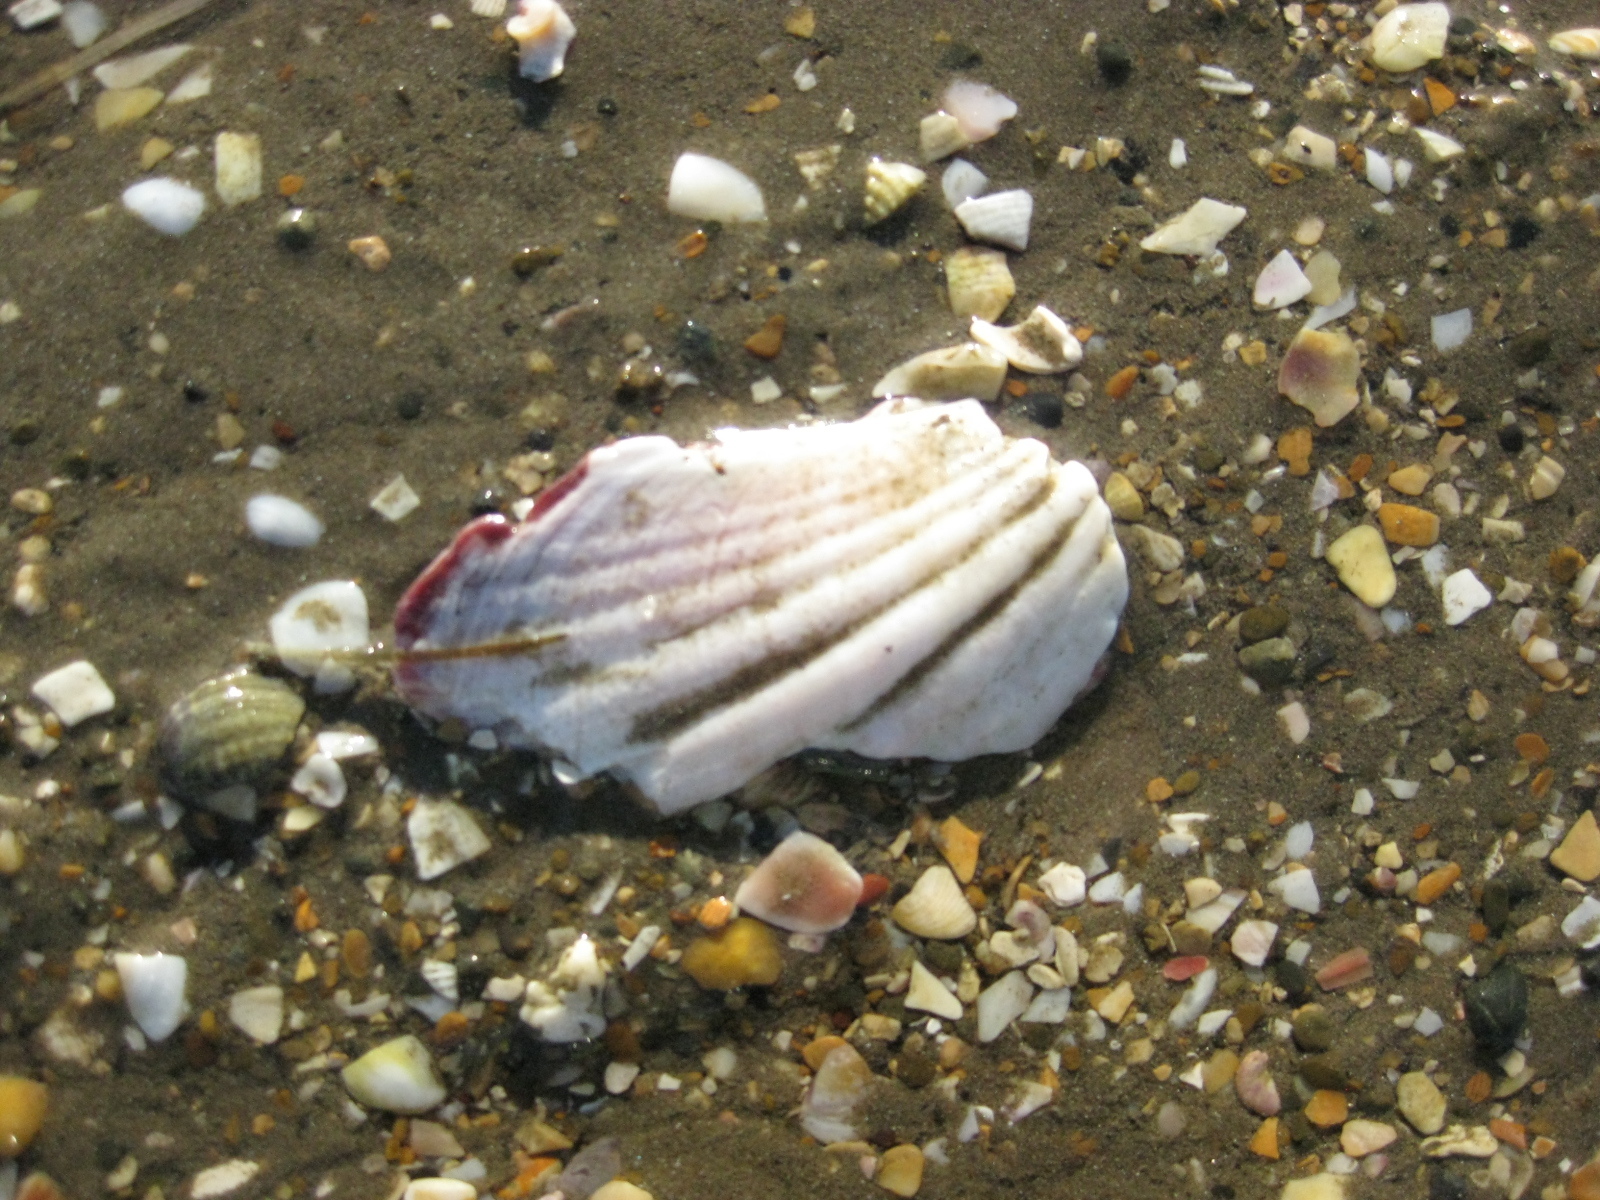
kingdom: Animalia
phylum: Mollusca
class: Bivalvia
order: Pectinida
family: Pectinidae
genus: Pecten
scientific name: Pecten novaezelandiae
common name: New zealand scallop
